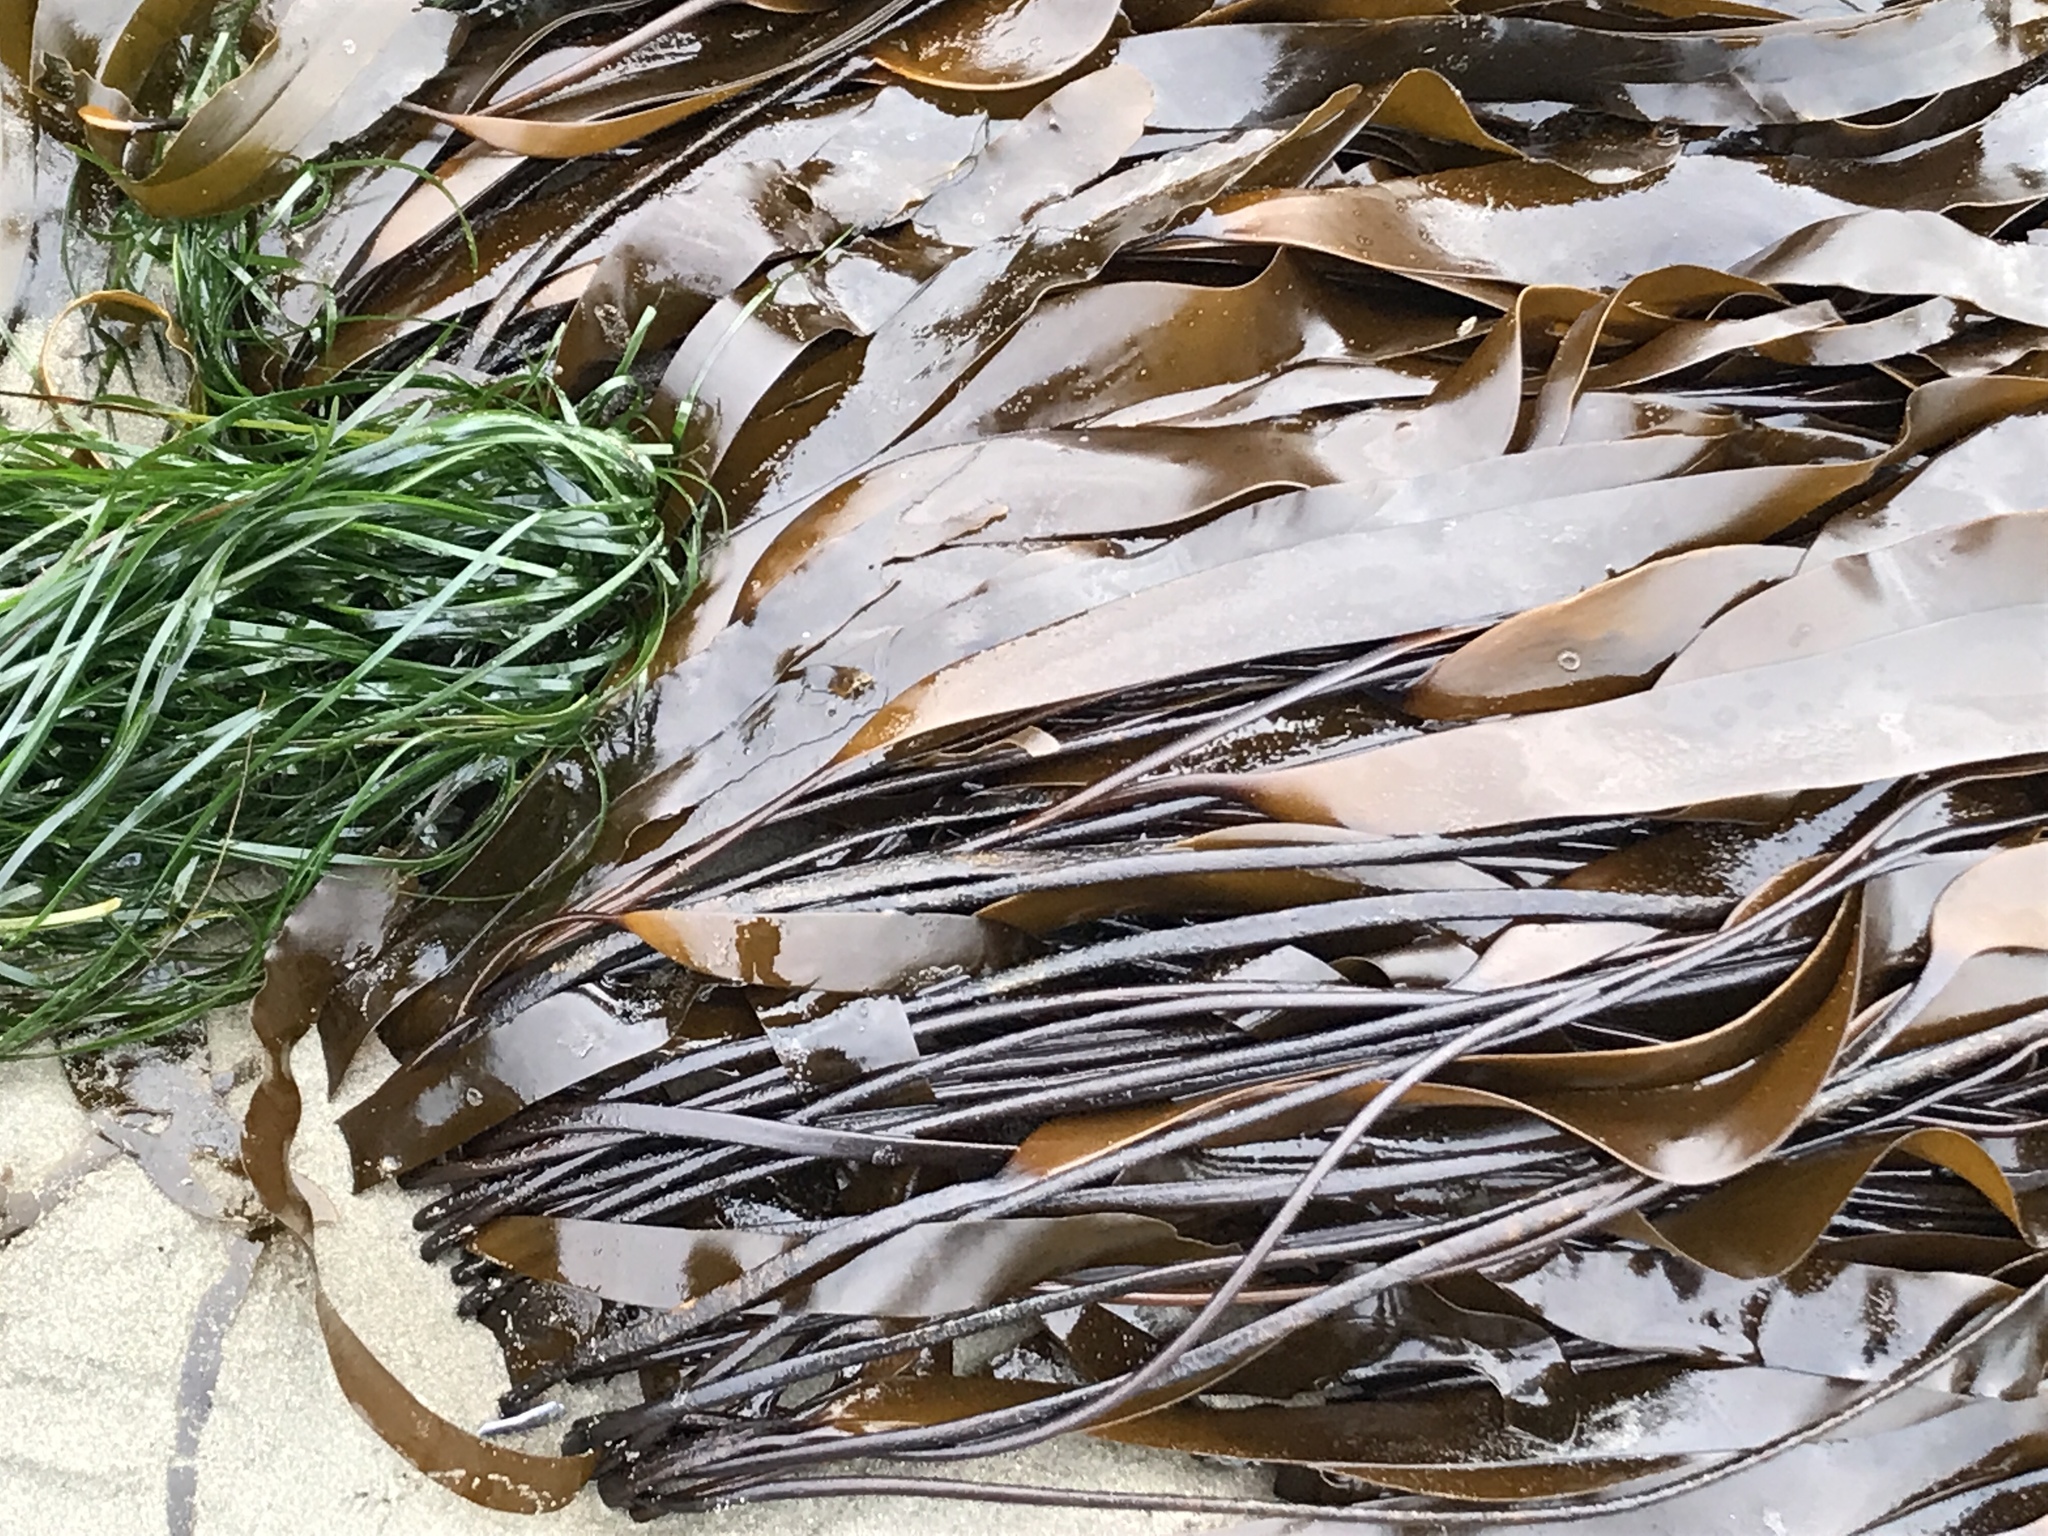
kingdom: Chromista
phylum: Ochrophyta
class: Phaeophyceae
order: Laminariales
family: Laminariaceae
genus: Laminaria
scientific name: Laminaria sinclairii
